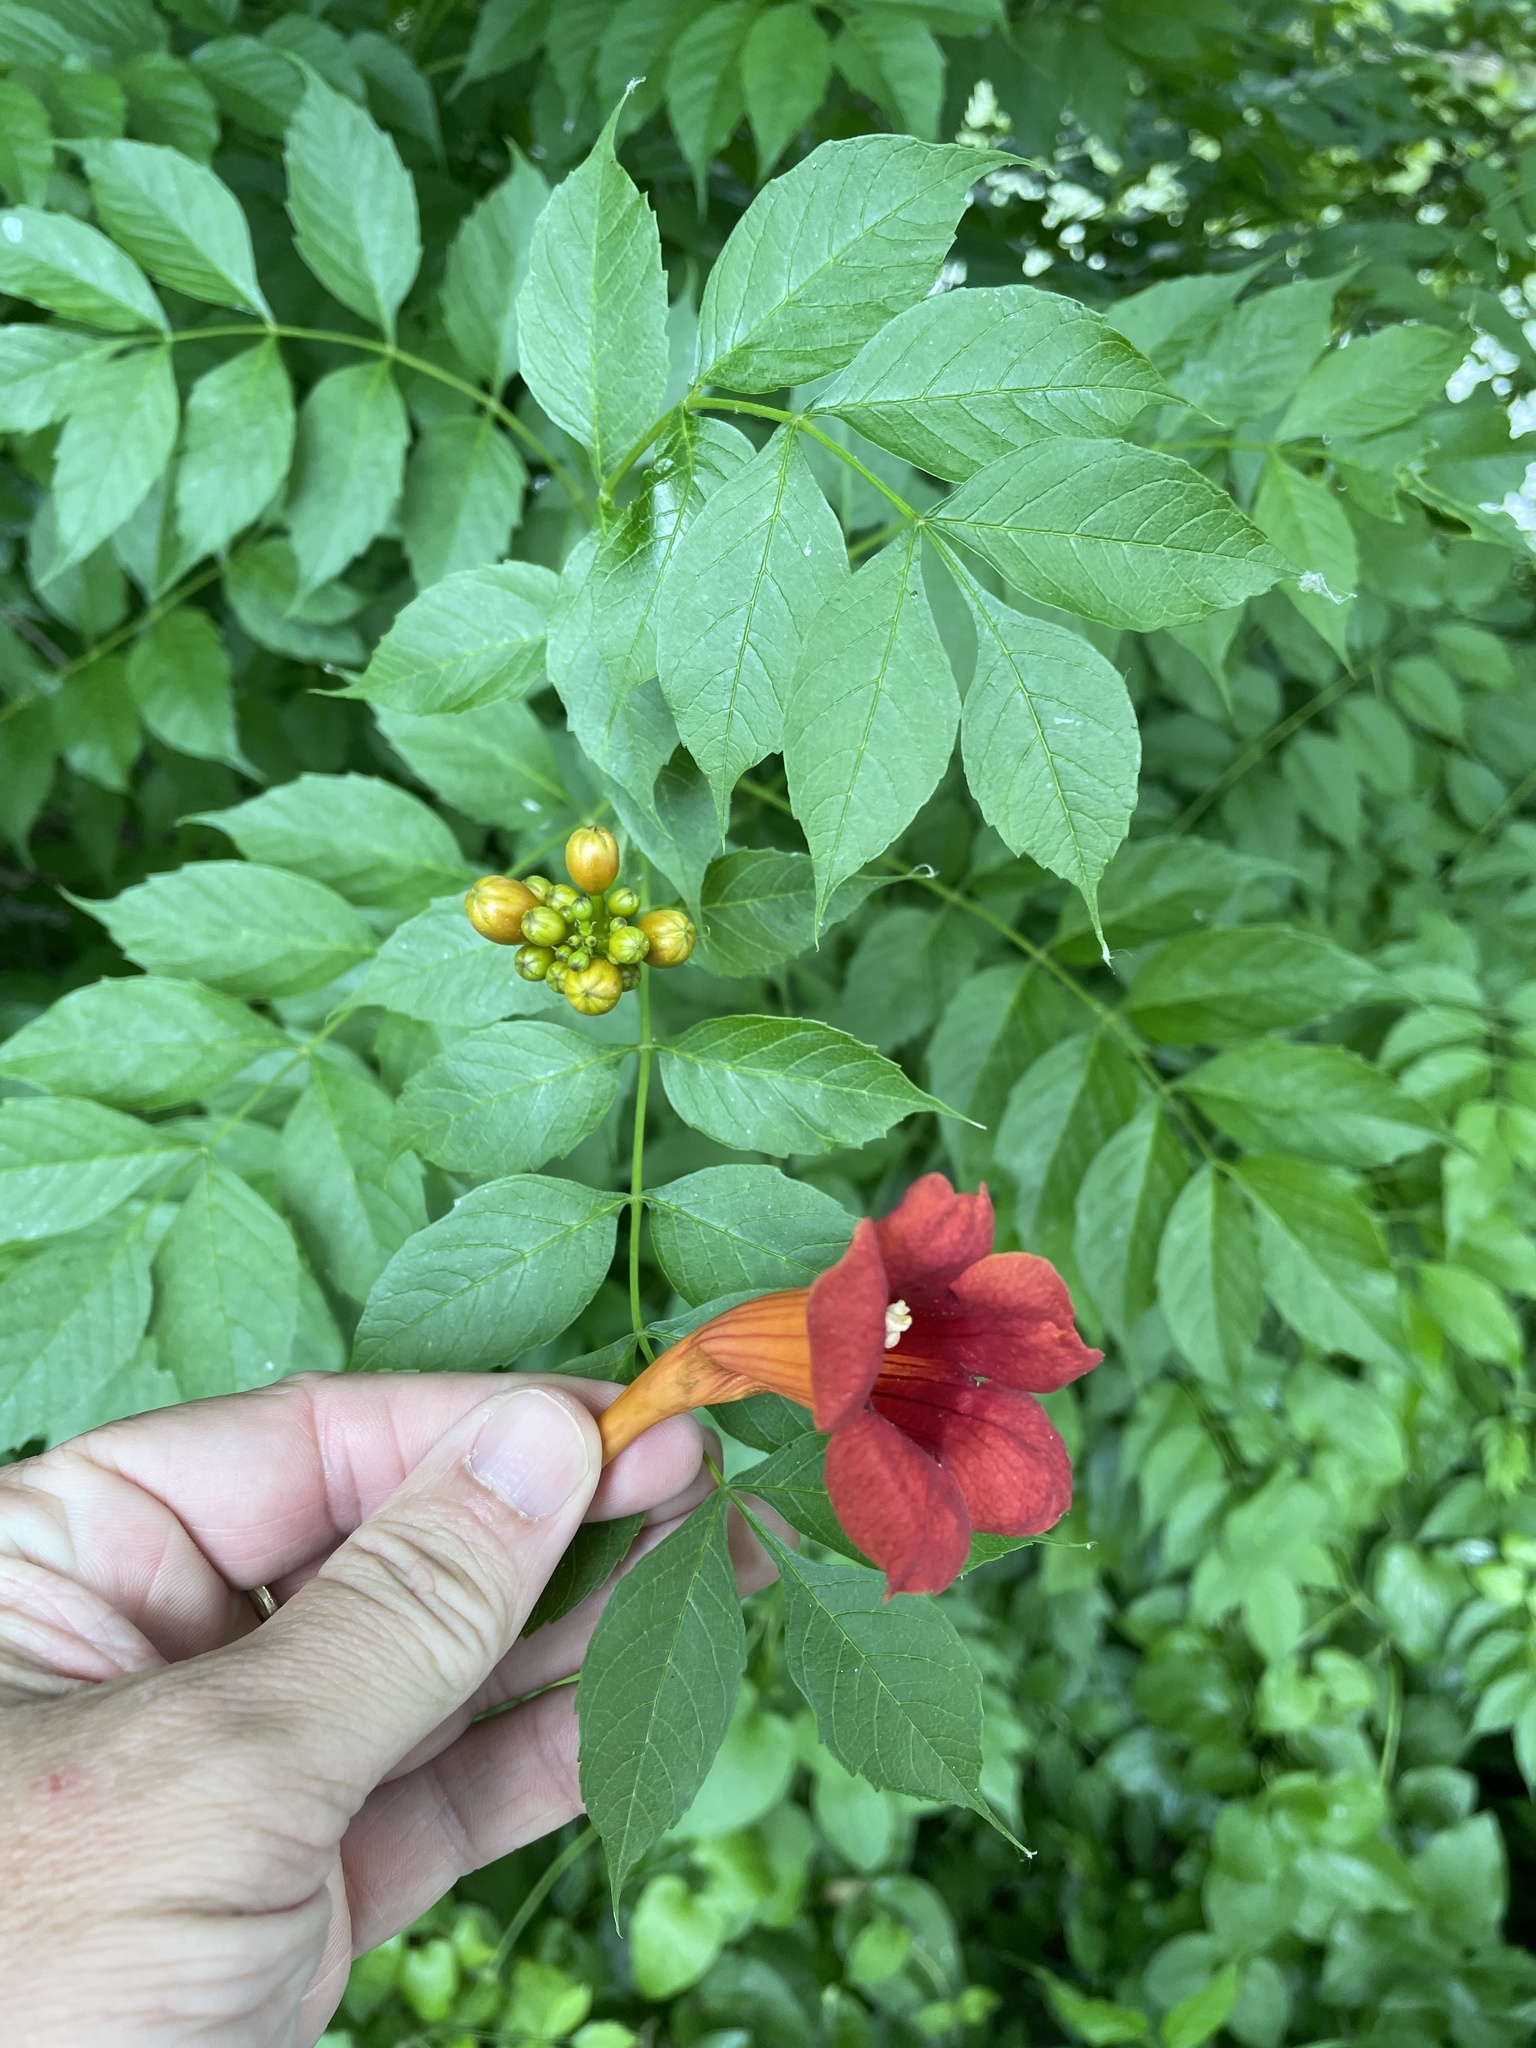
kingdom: Plantae
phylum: Tracheophyta
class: Magnoliopsida
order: Lamiales
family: Bignoniaceae
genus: Campsis
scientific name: Campsis radicans
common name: Trumpet-creeper
